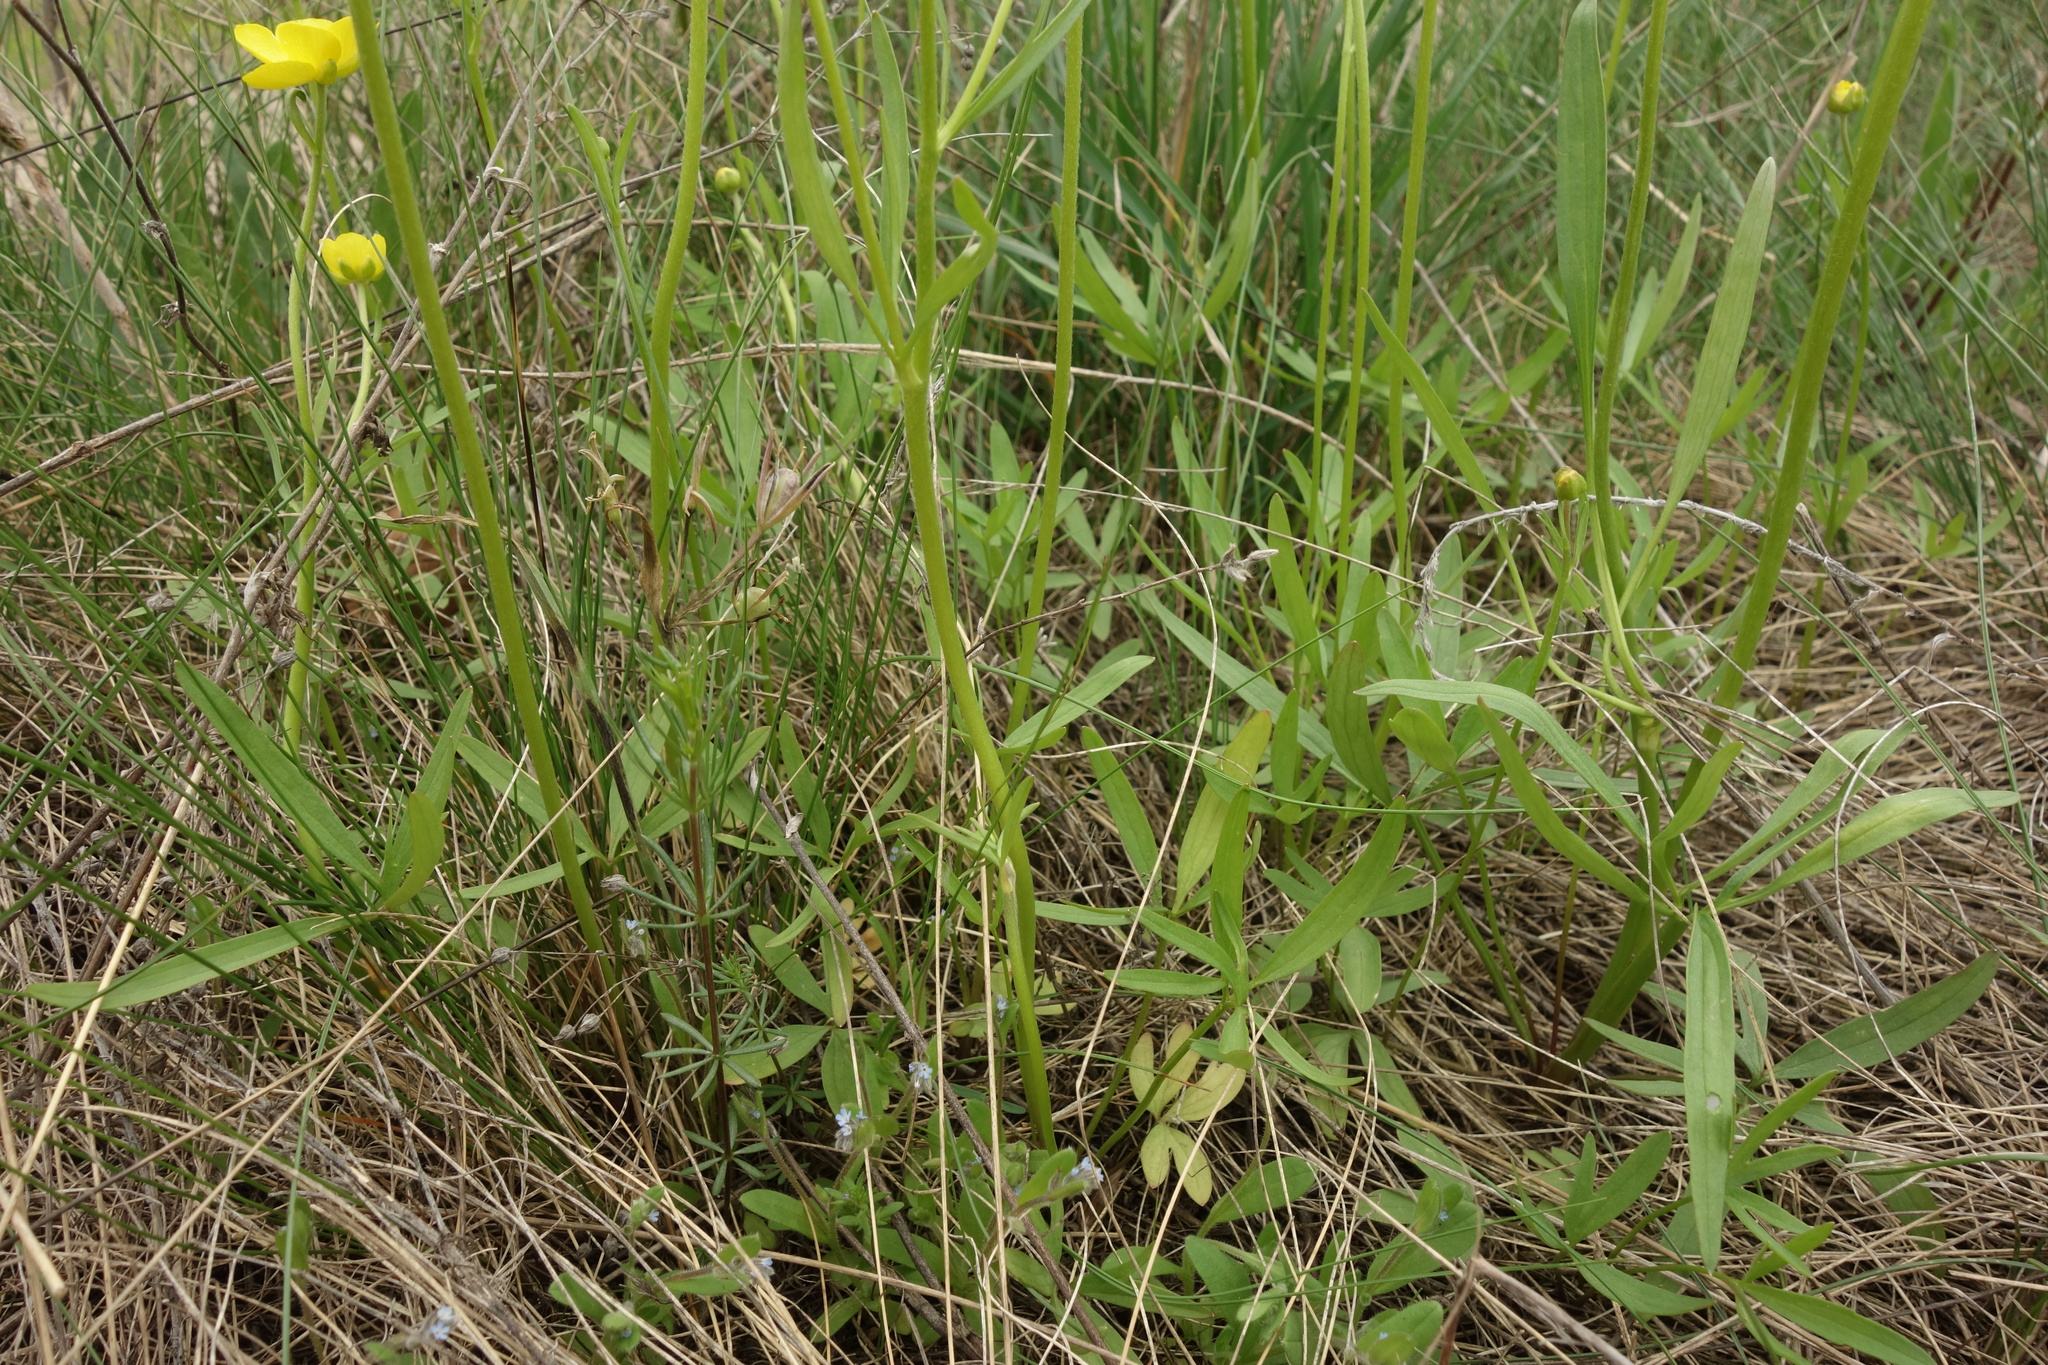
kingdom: Plantae
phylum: Tracheophyta
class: Magnoliopsida
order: Ranunculales
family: Ranunculaceae
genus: Ranunculus
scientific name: Ranunculus pedatus
